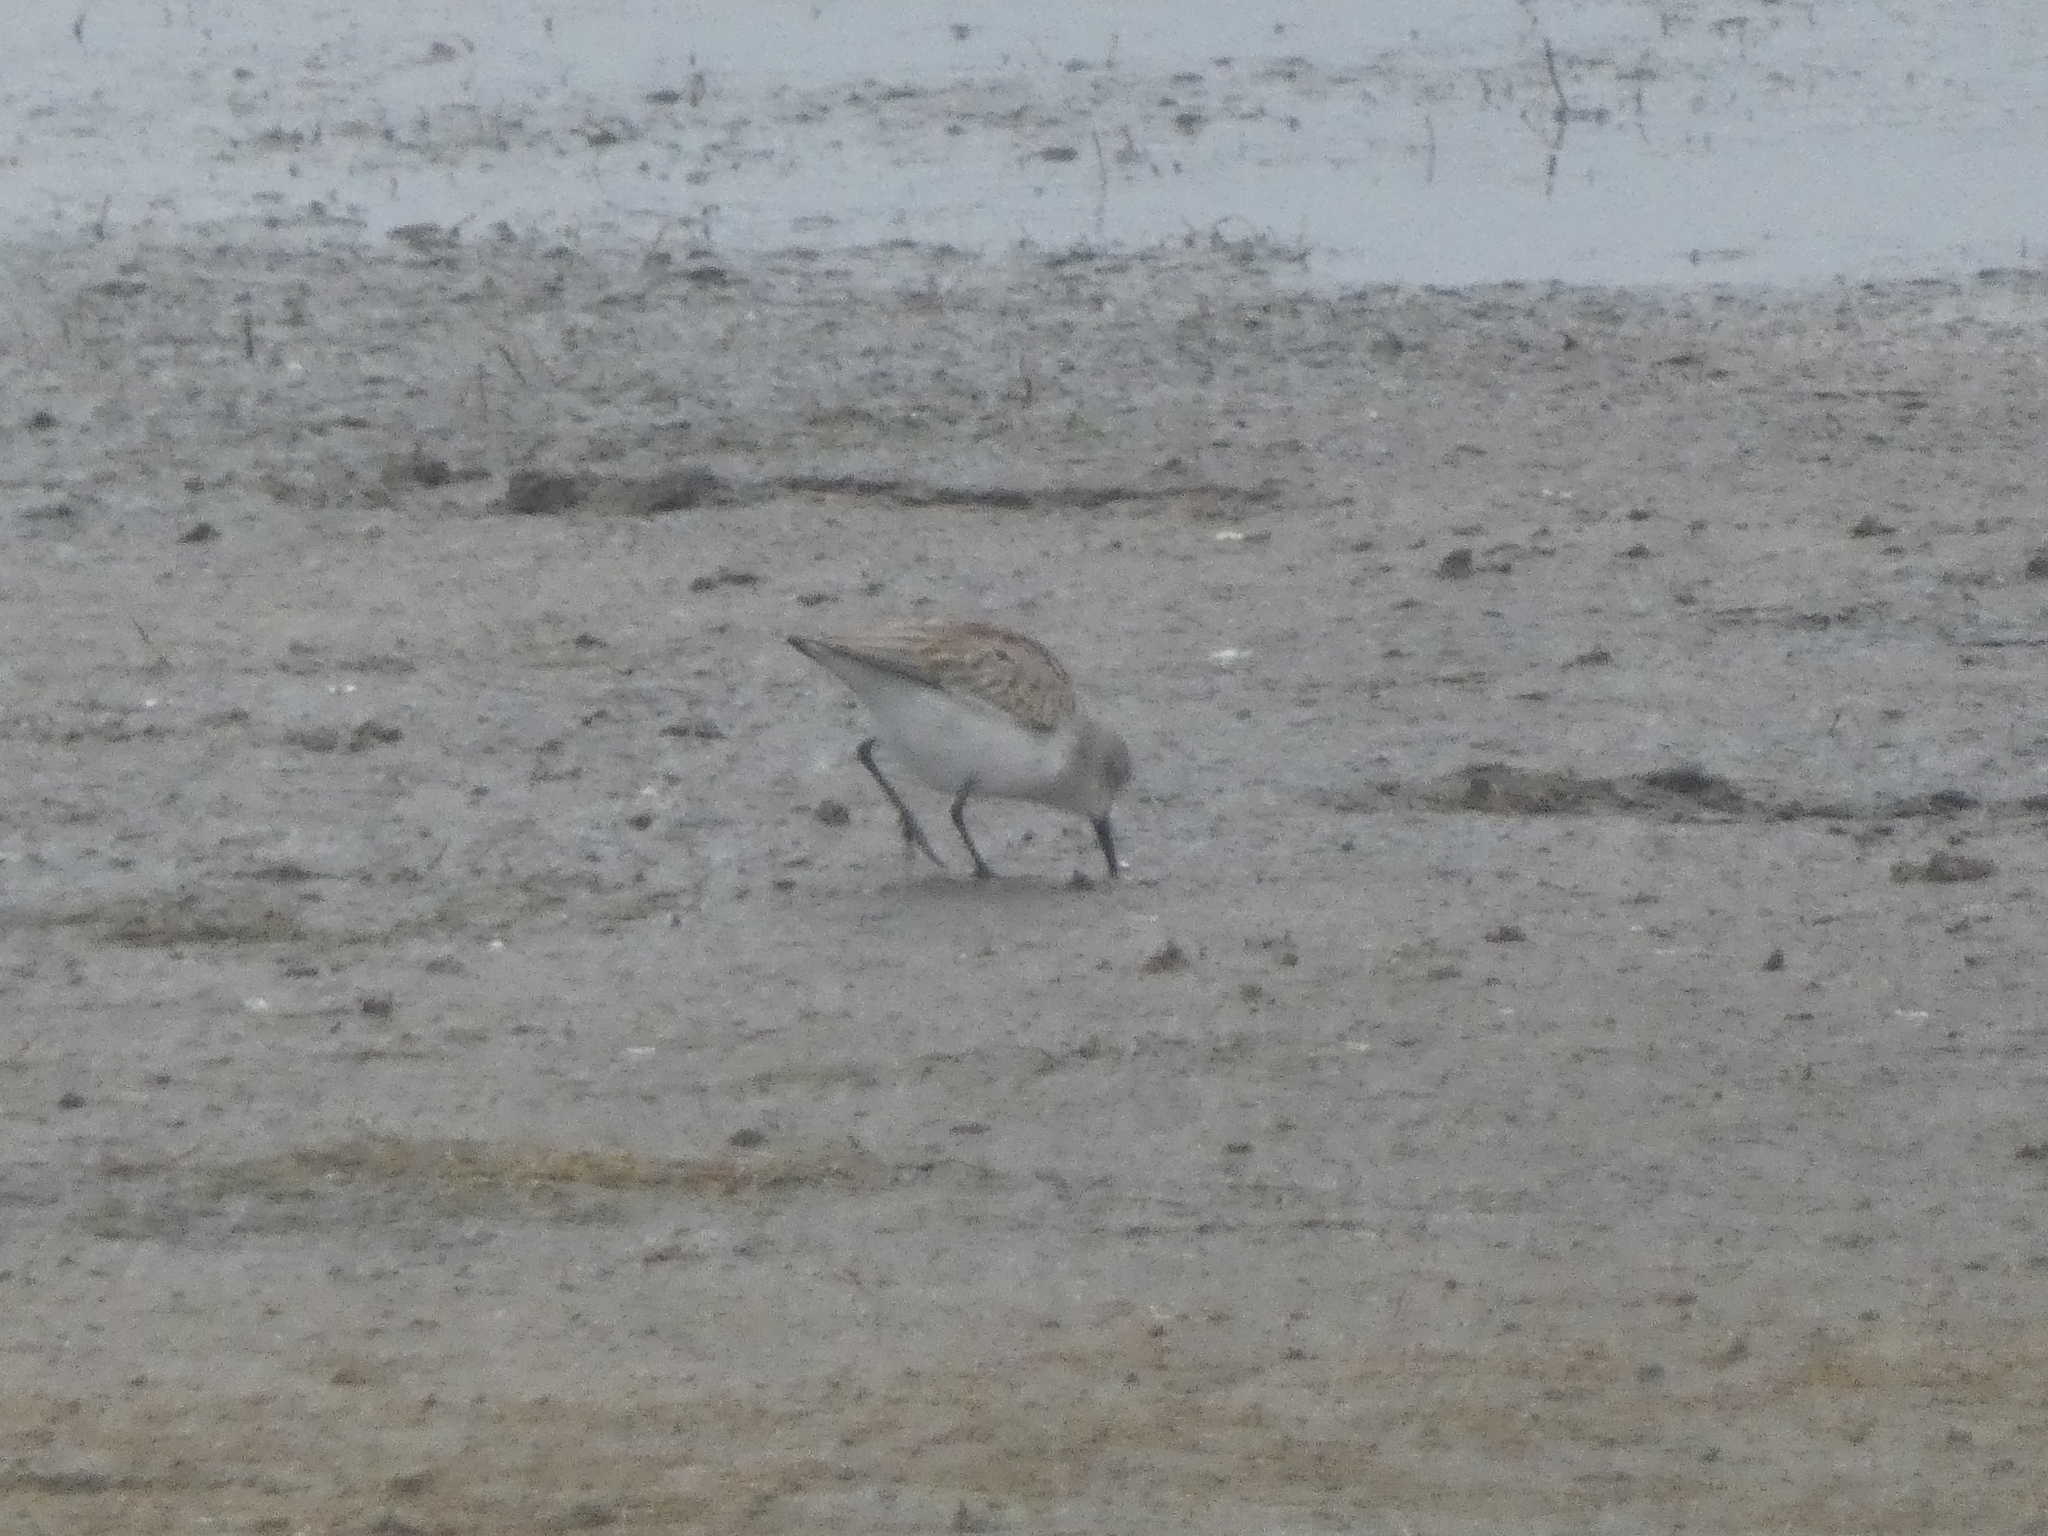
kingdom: Animalia
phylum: Chordata
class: Aves
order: Charadriiformes
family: Scolopacidae
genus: Calidris
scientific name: Calidris mauri
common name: Western sandpiper
